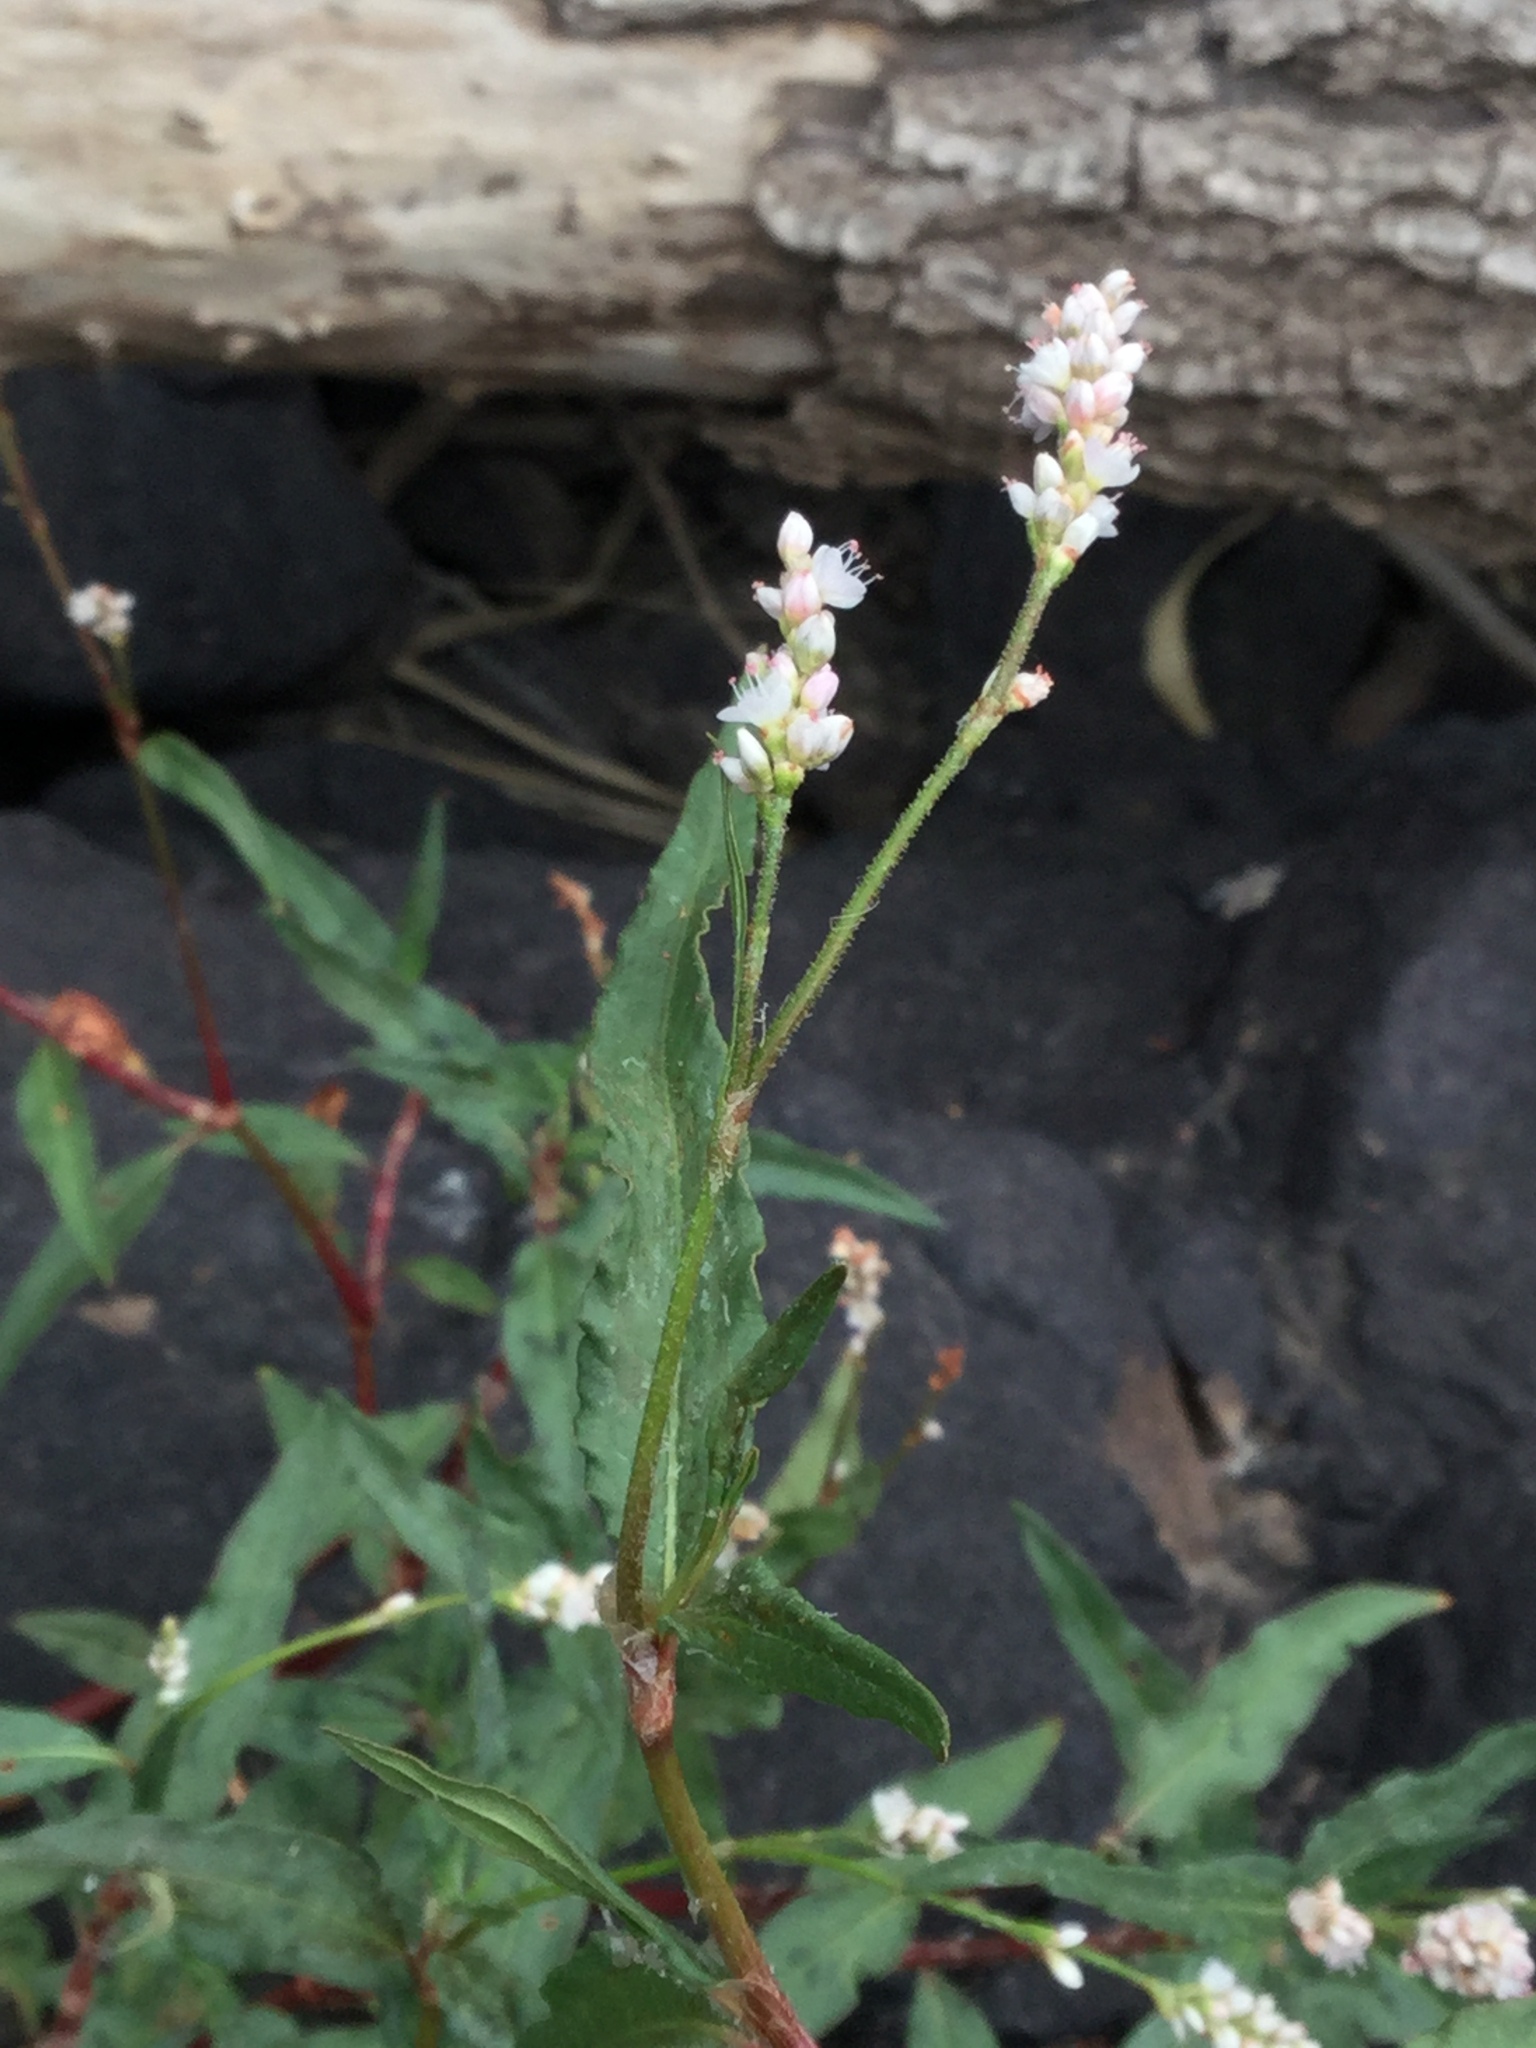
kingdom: Plantae
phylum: Tracheophyta
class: Magnoliopsida
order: Caryophyllales
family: Polygonaceae
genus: Persicaria
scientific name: Persicaria bicornis
